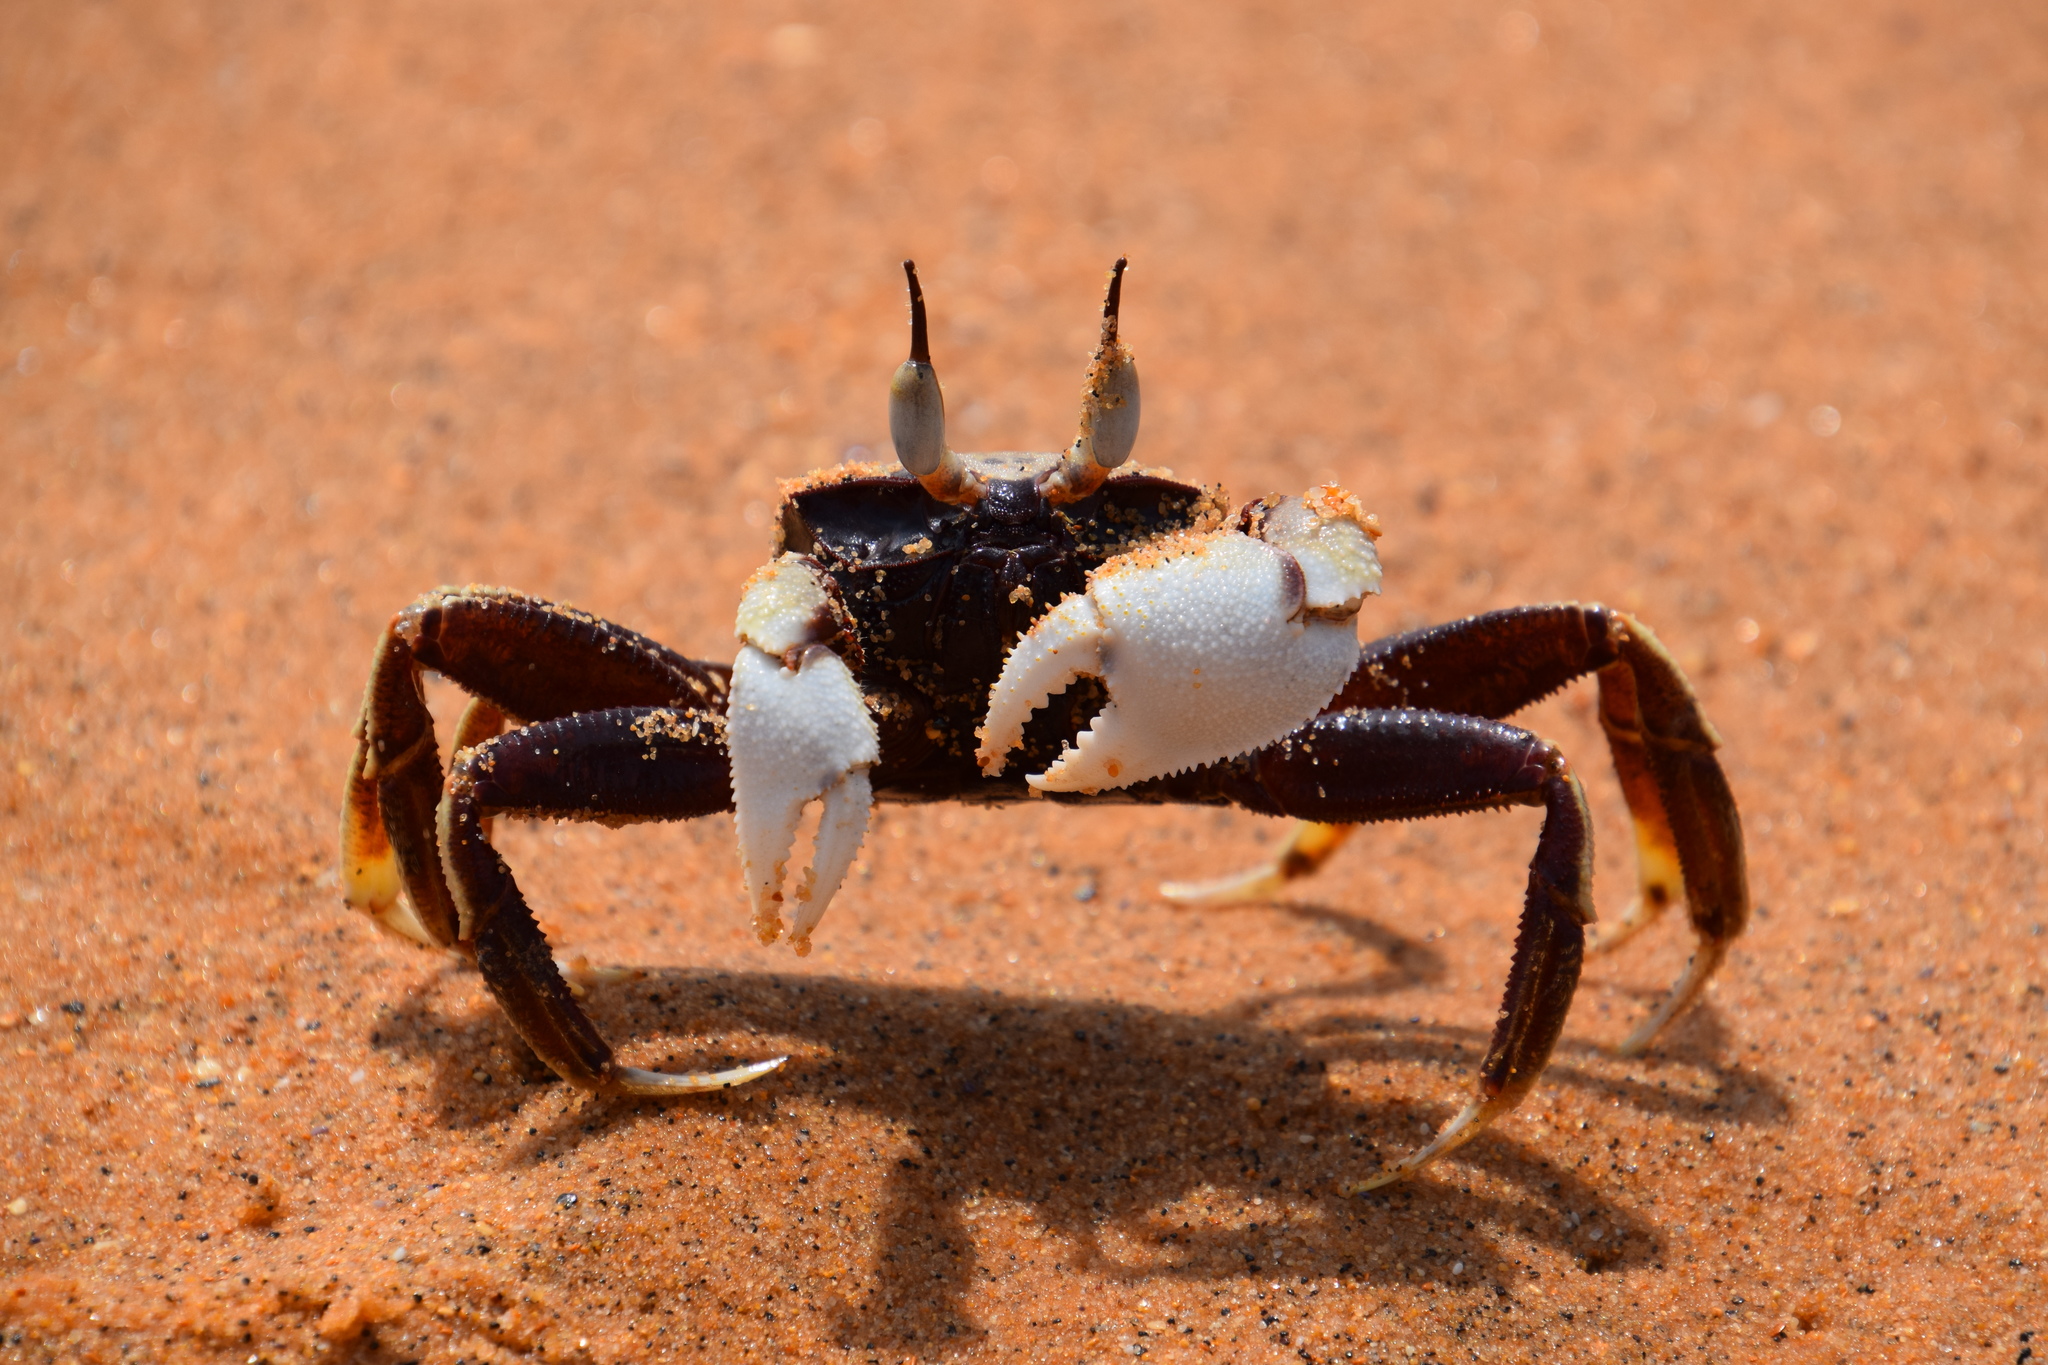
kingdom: Animalia
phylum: Arthropoda
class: Malacostraca
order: Decapoda
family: Ocypodidae
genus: Ocypode
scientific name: Ocypode ceratophthalmus
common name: Indo-pacific ghost crab
